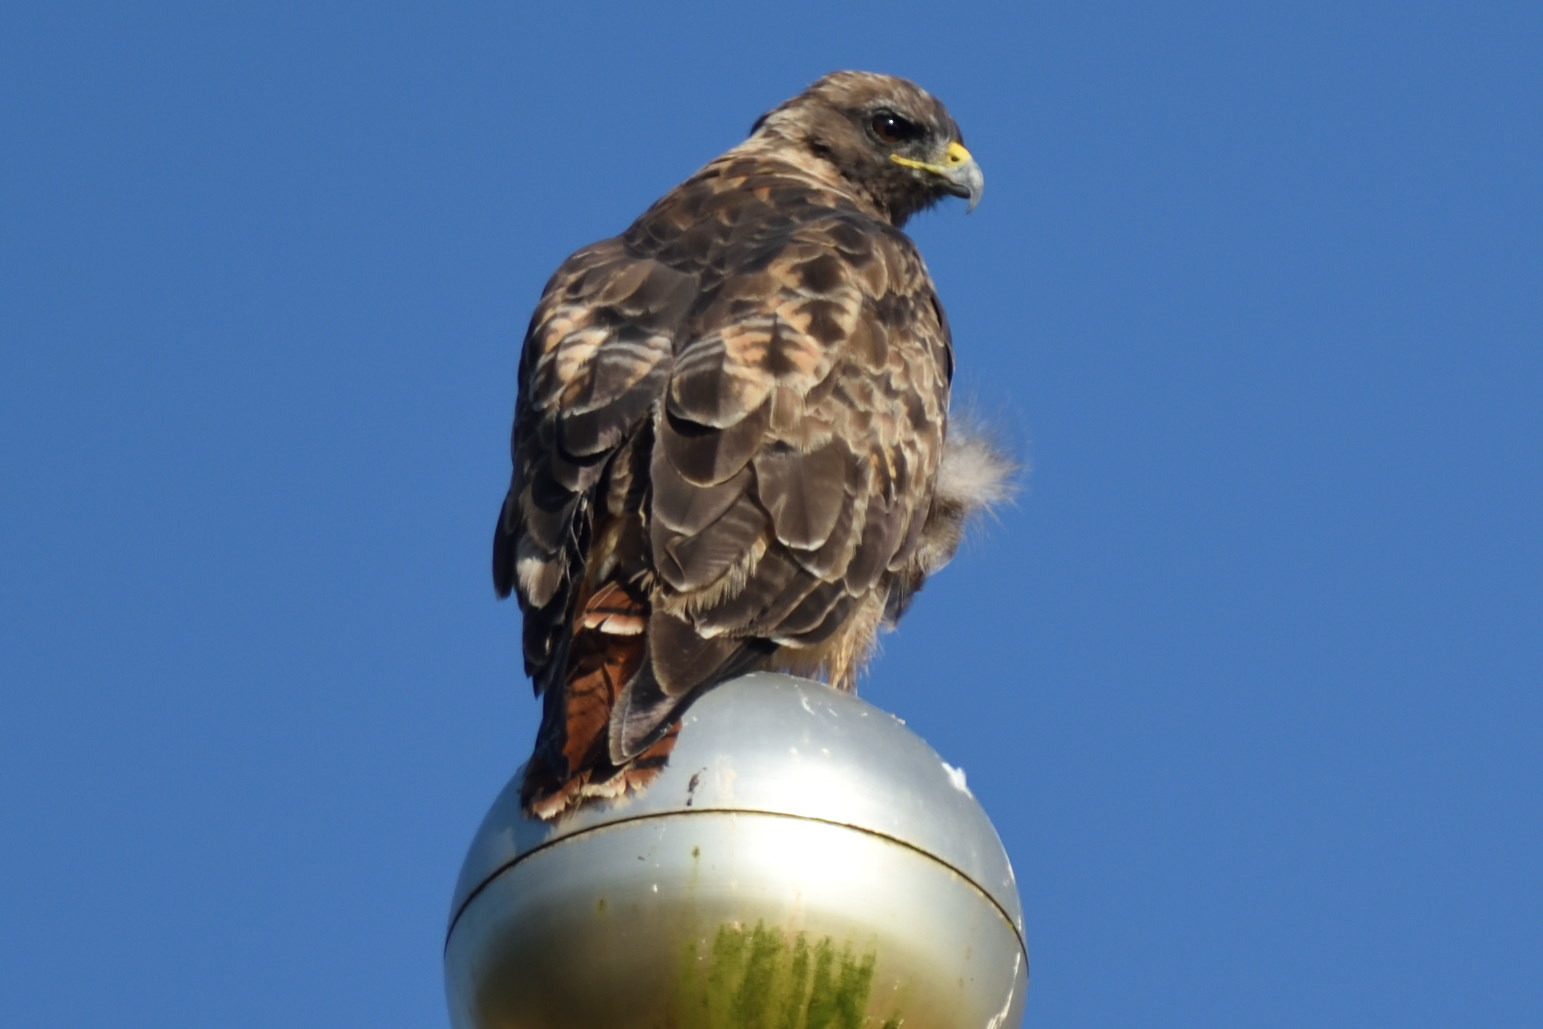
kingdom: Animalia
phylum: Chordata
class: Aves
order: Accipitriformes
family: Accipitridae
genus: Buteo
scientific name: Buteo jamaicensis
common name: Red-tailed hawk
